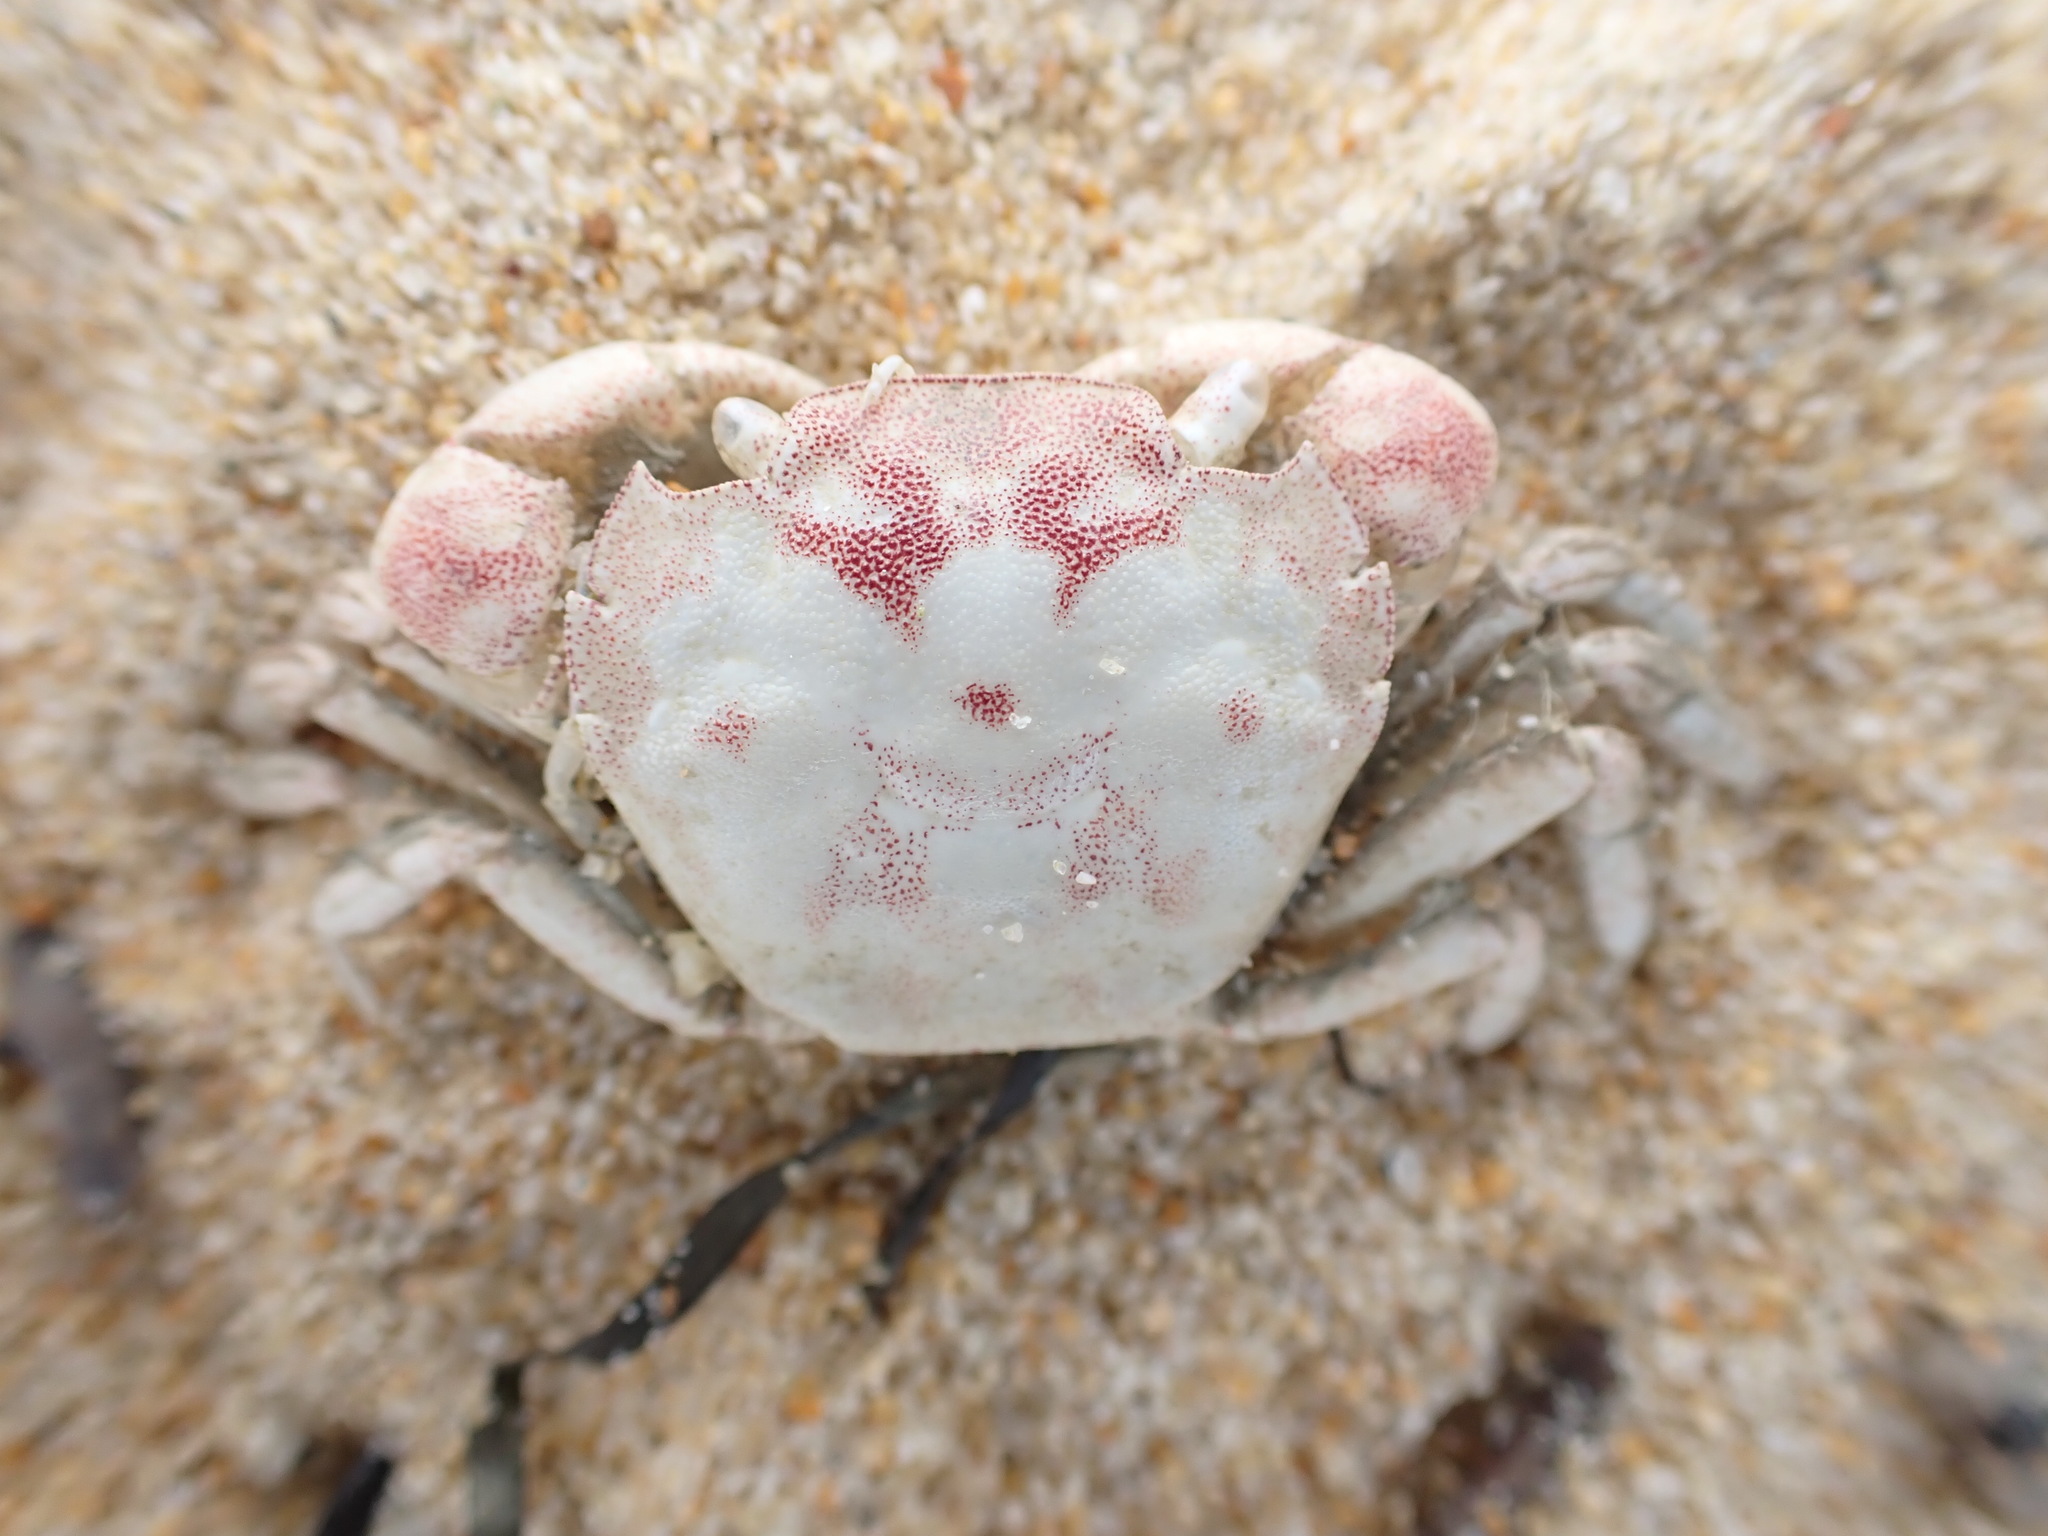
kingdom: Animalia
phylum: Arthropoda
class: Malacostraca
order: Decapoda
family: Varunidae
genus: Hemigrapsus
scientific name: Hemigrapsus crenulatus
